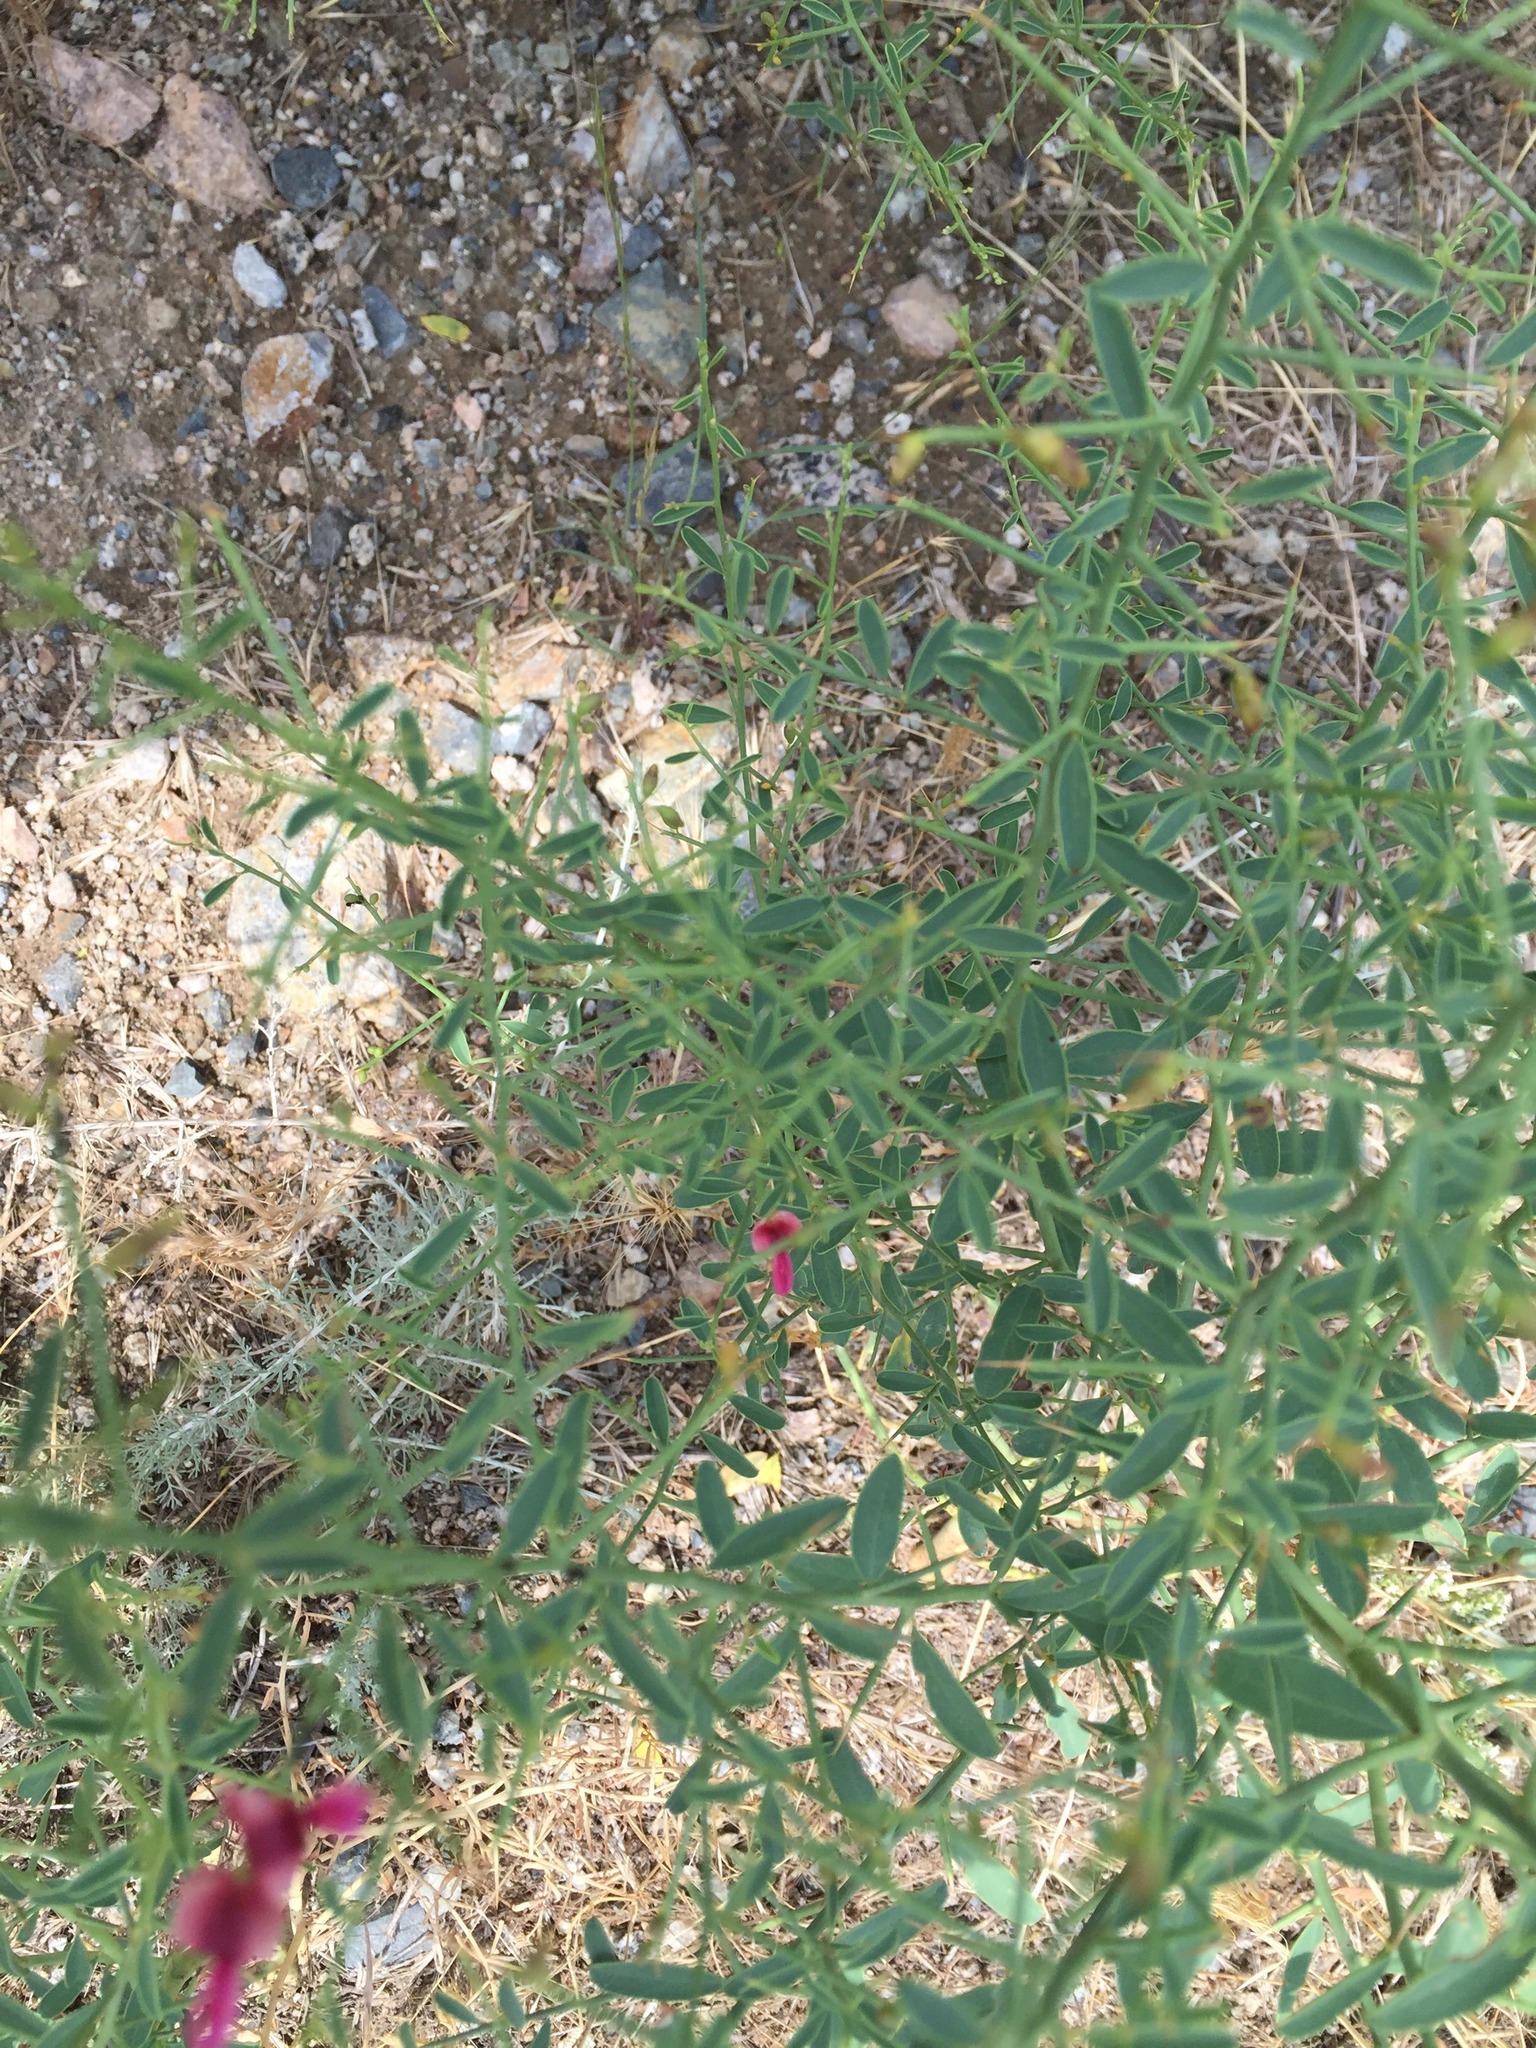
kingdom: Plantae
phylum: Tracheophyta
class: Magnoliopsida
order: Fabales
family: Fabaceae
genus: Alhagi
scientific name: Alhagi maurorum
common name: Camelthorn
